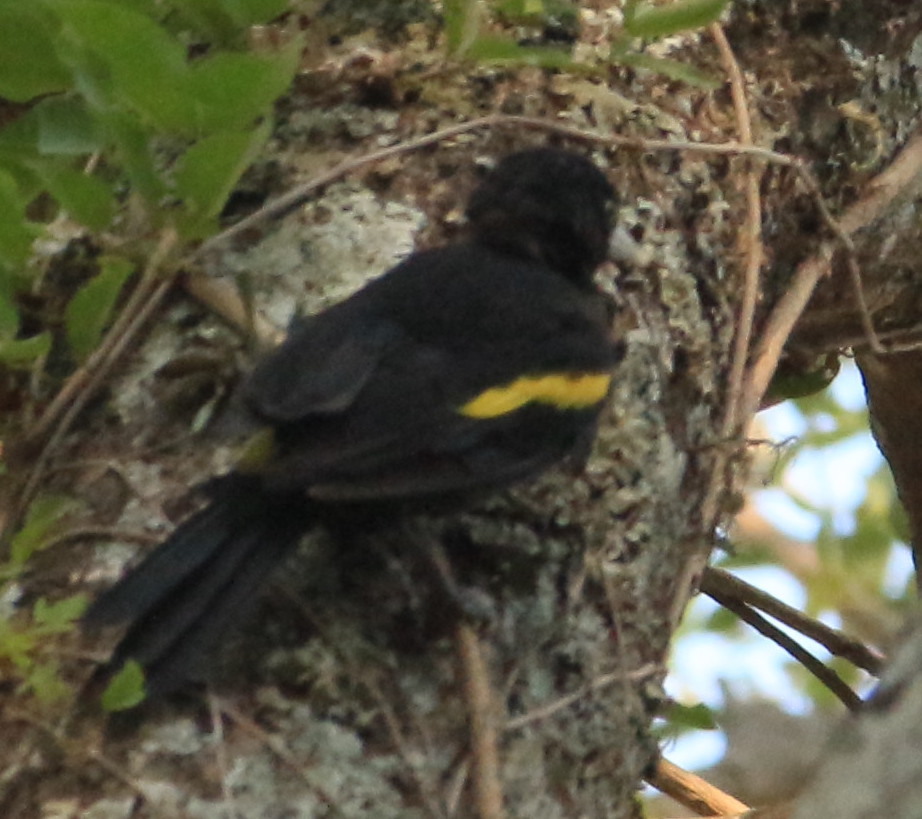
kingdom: Animalia
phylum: Chordata
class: Aves
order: Passeriformes
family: Icteridae
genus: Cacicus
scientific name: Cacicus chrysopterus
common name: Golden-winged cacique
